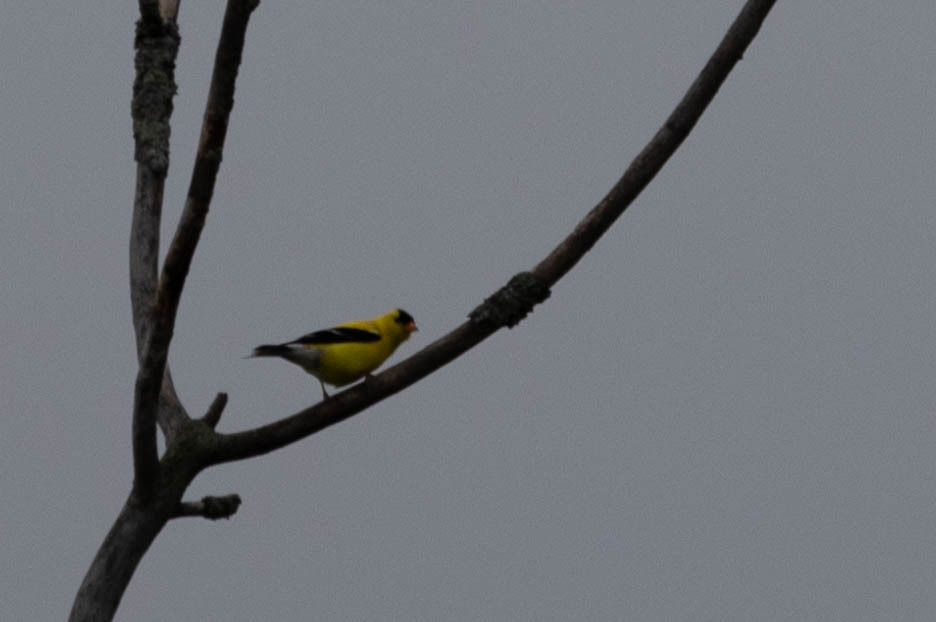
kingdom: Animalia
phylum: Chordata
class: Aves
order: Passeriformes
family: Fringillidae
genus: Spinus
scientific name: Spinus tristis
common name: American goldfinch
